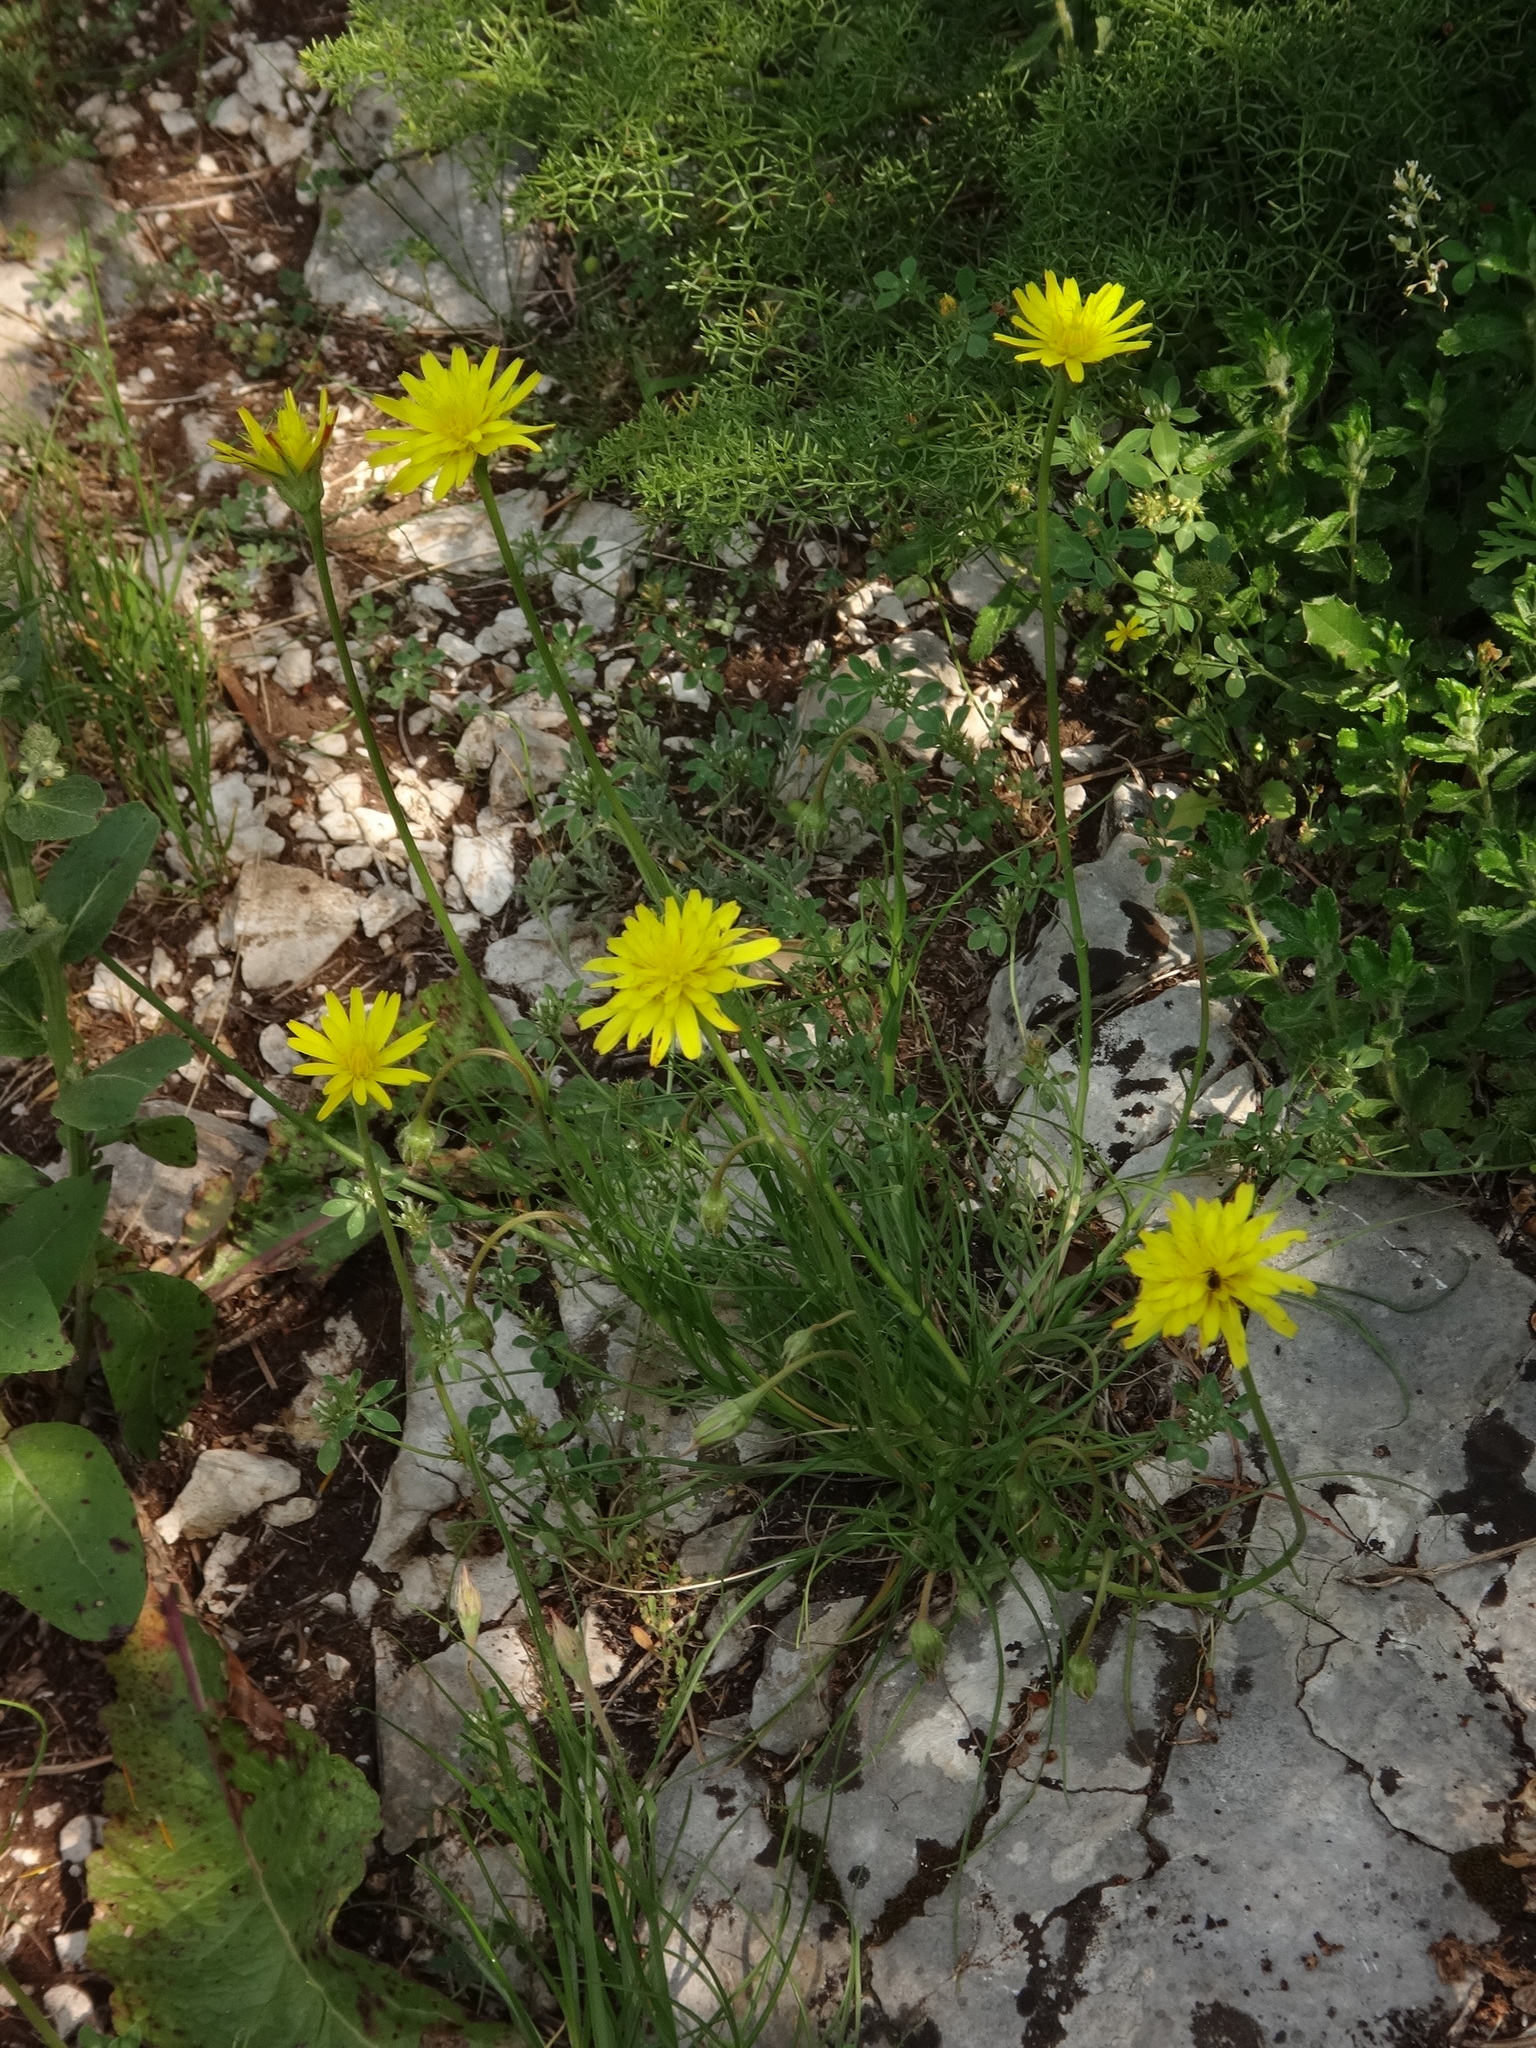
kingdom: Plantae
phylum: Tracheophyta
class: Magnoliopsida
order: Asterales
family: Asteraceae
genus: Gelasia
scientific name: Gelasia villosa
